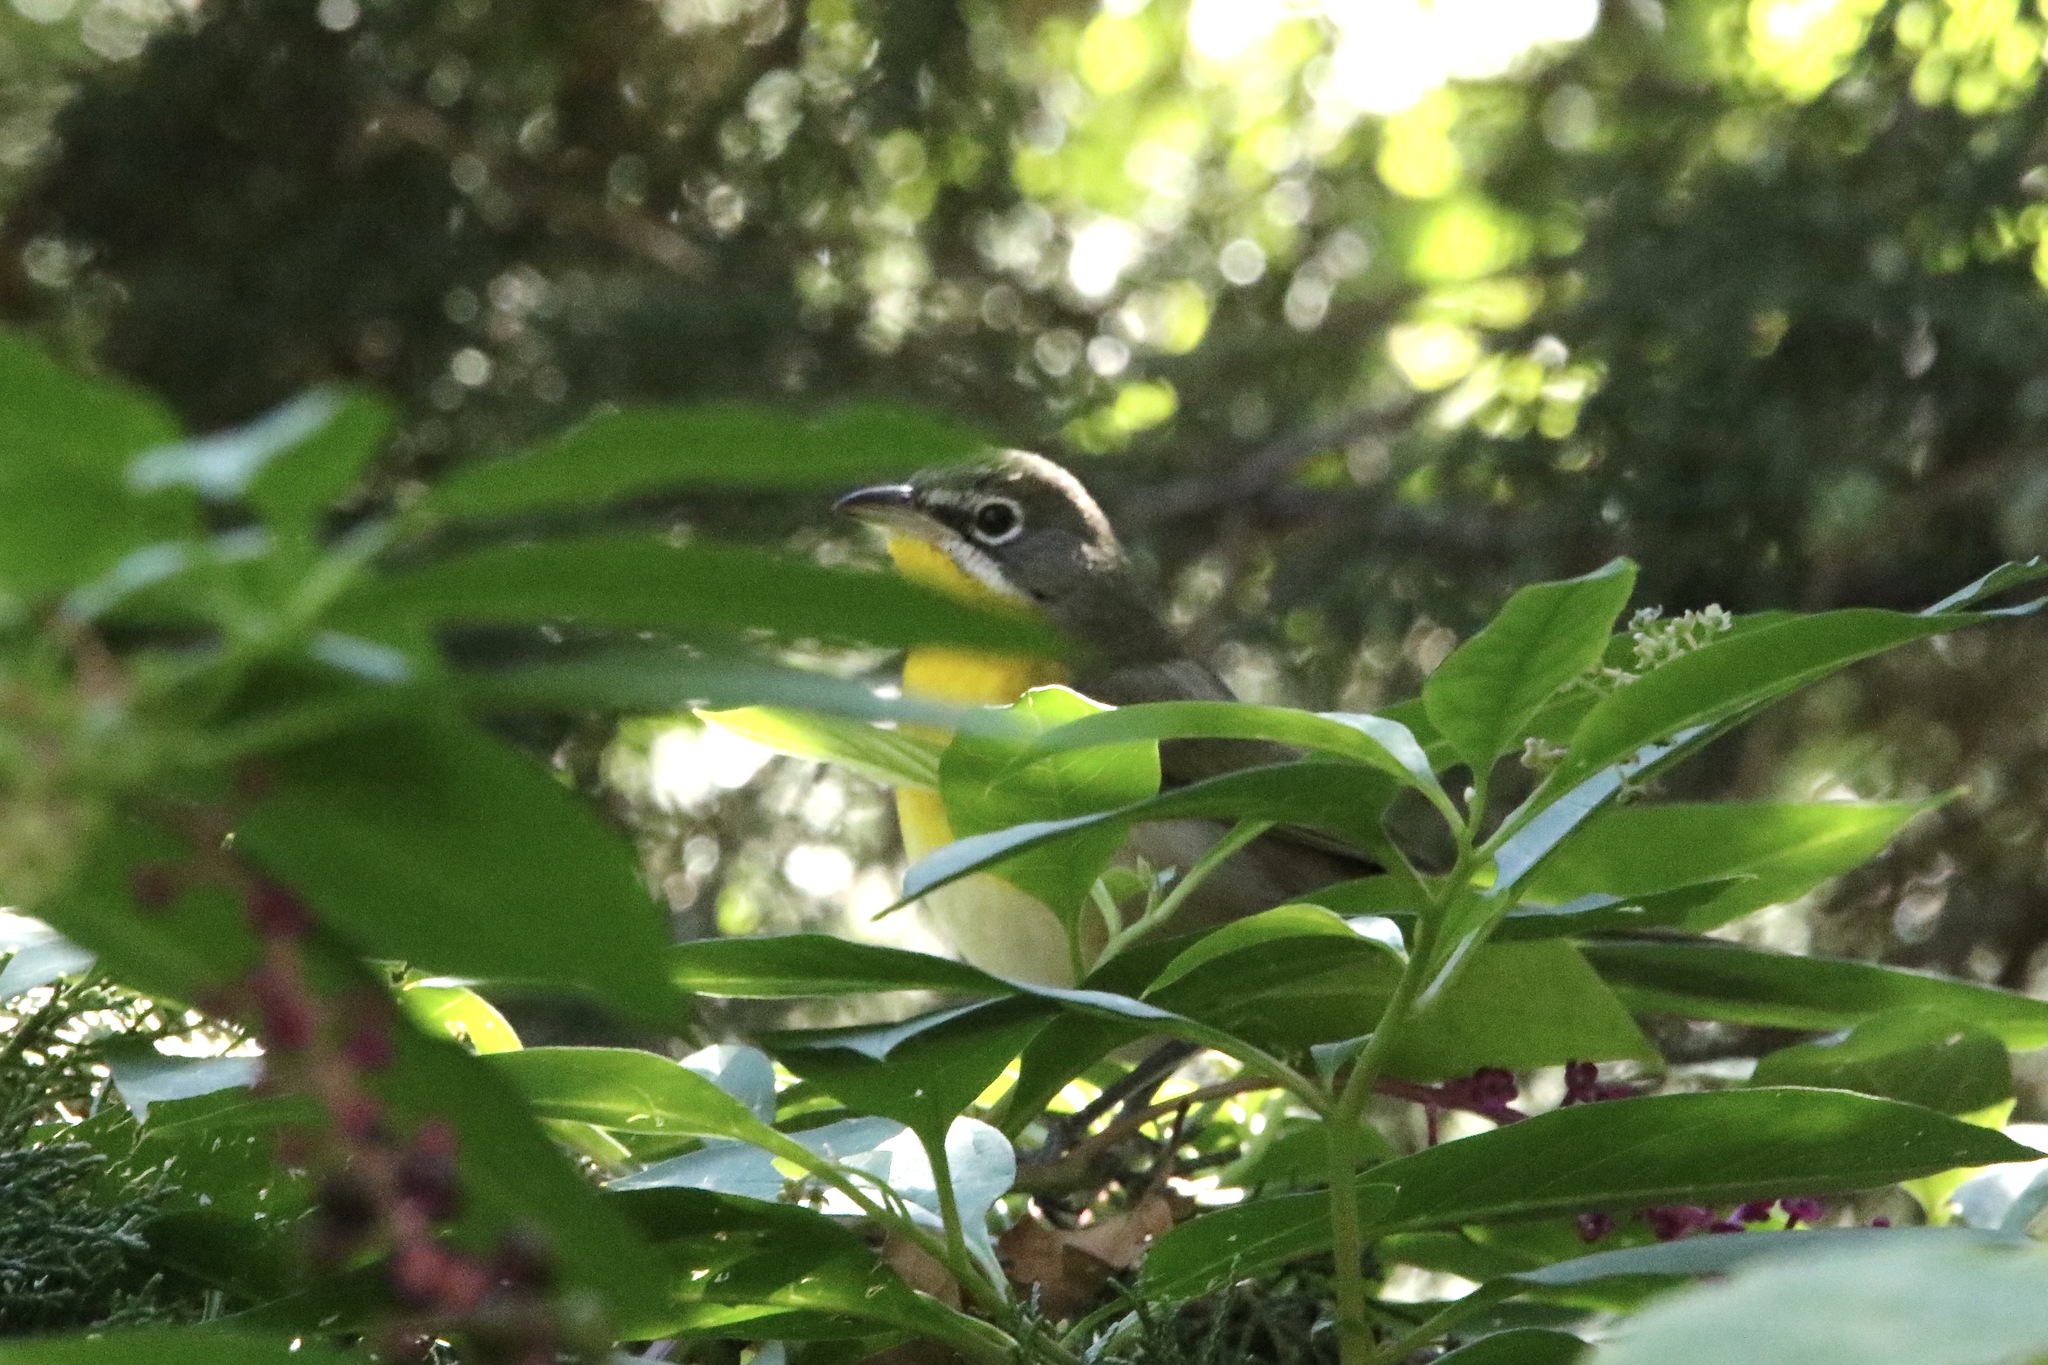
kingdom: Animalia
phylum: Chordata
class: Aves
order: Passeriformes
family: Parulidae
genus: Icteria
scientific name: Icteria virens
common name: Yellow-breasted chat
